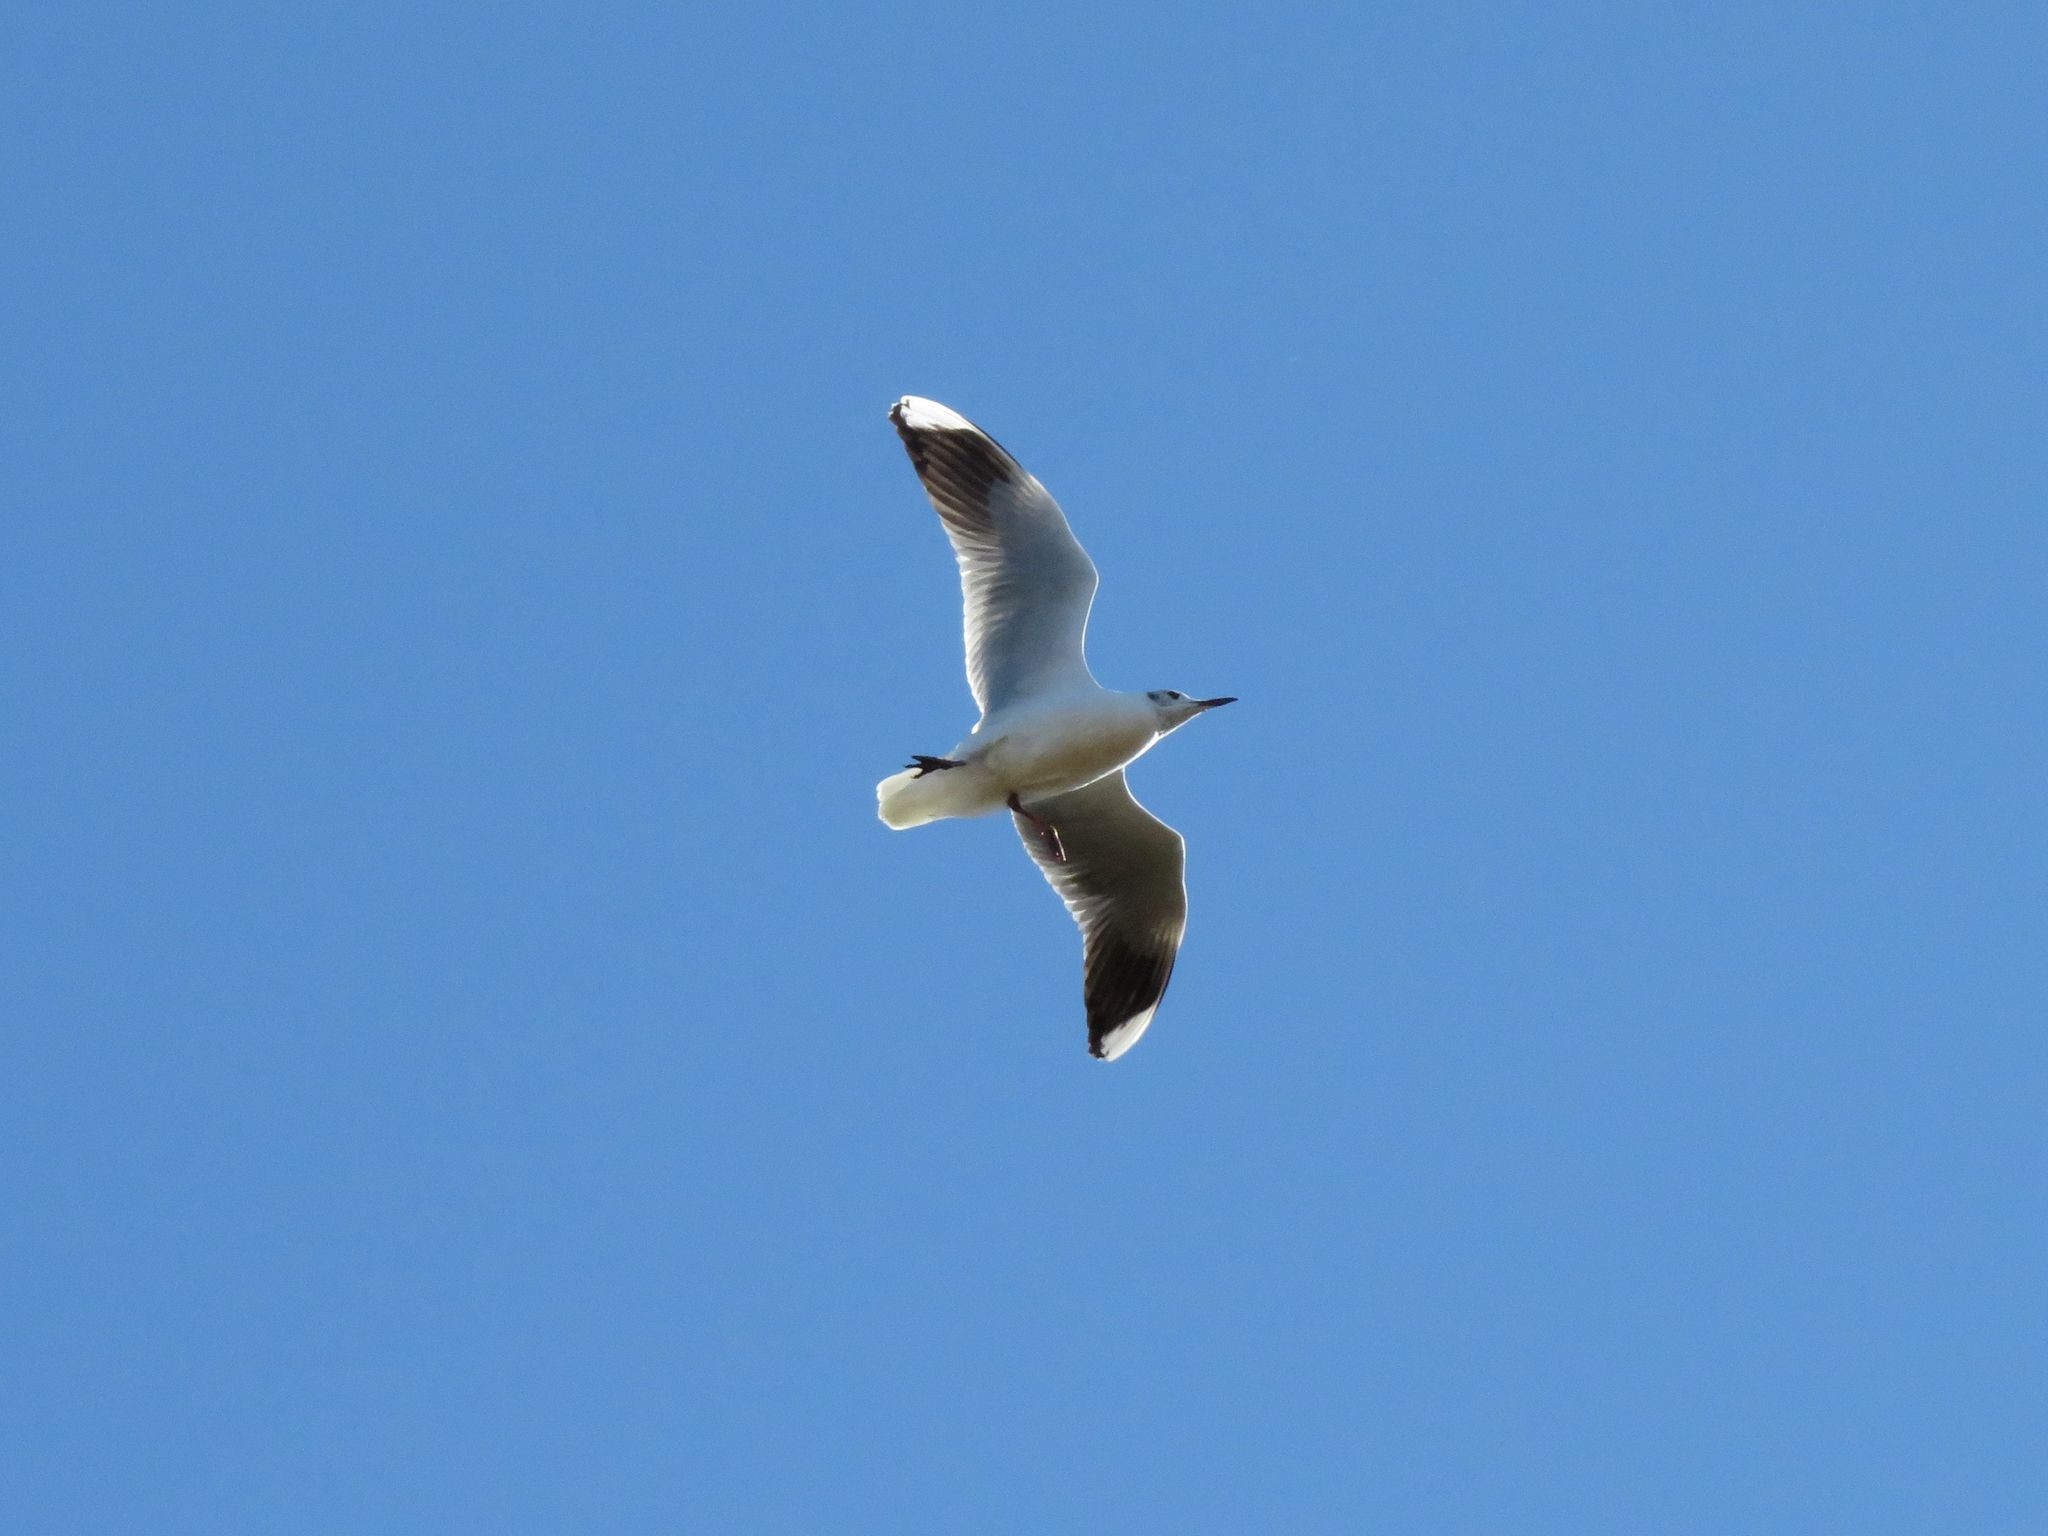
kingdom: Animalia
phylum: Chordata
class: Aves
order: Charadriiformes
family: Laridae
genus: Chroicocephalus
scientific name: Chroicocephalus maculipennis
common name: Brown-hooded gull
